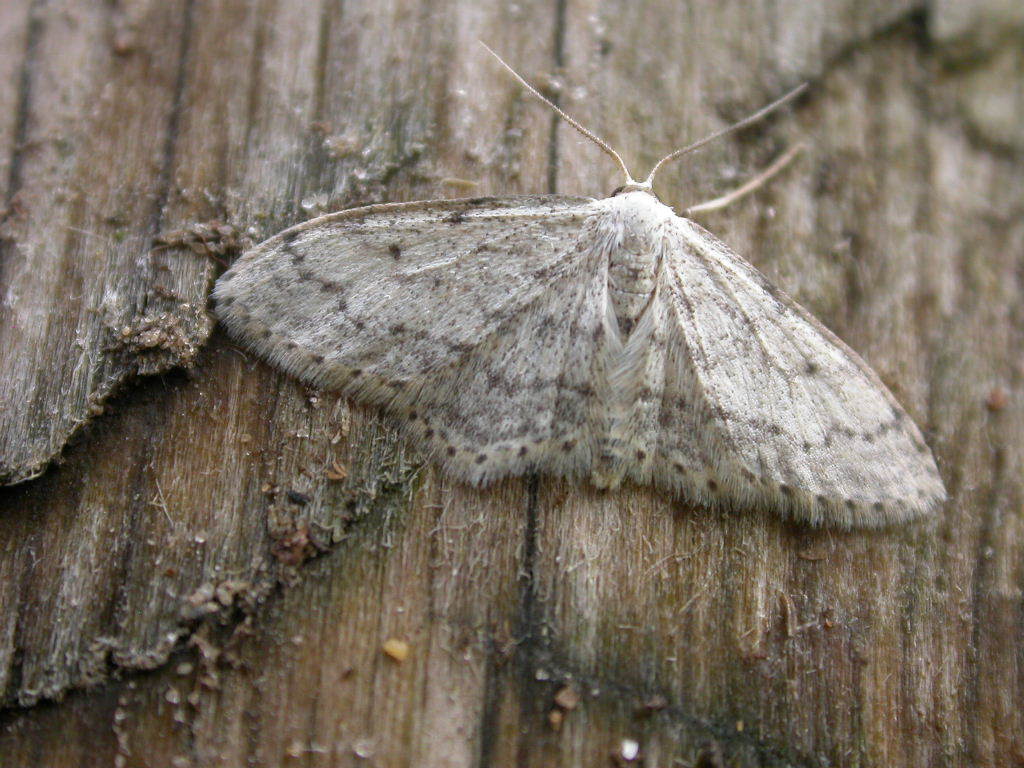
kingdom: Animalia
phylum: Arthropoda
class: Insecta
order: Lepidoptera
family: Geometridae
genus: Idaea
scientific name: Idaea seriata
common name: Small dusty wave
